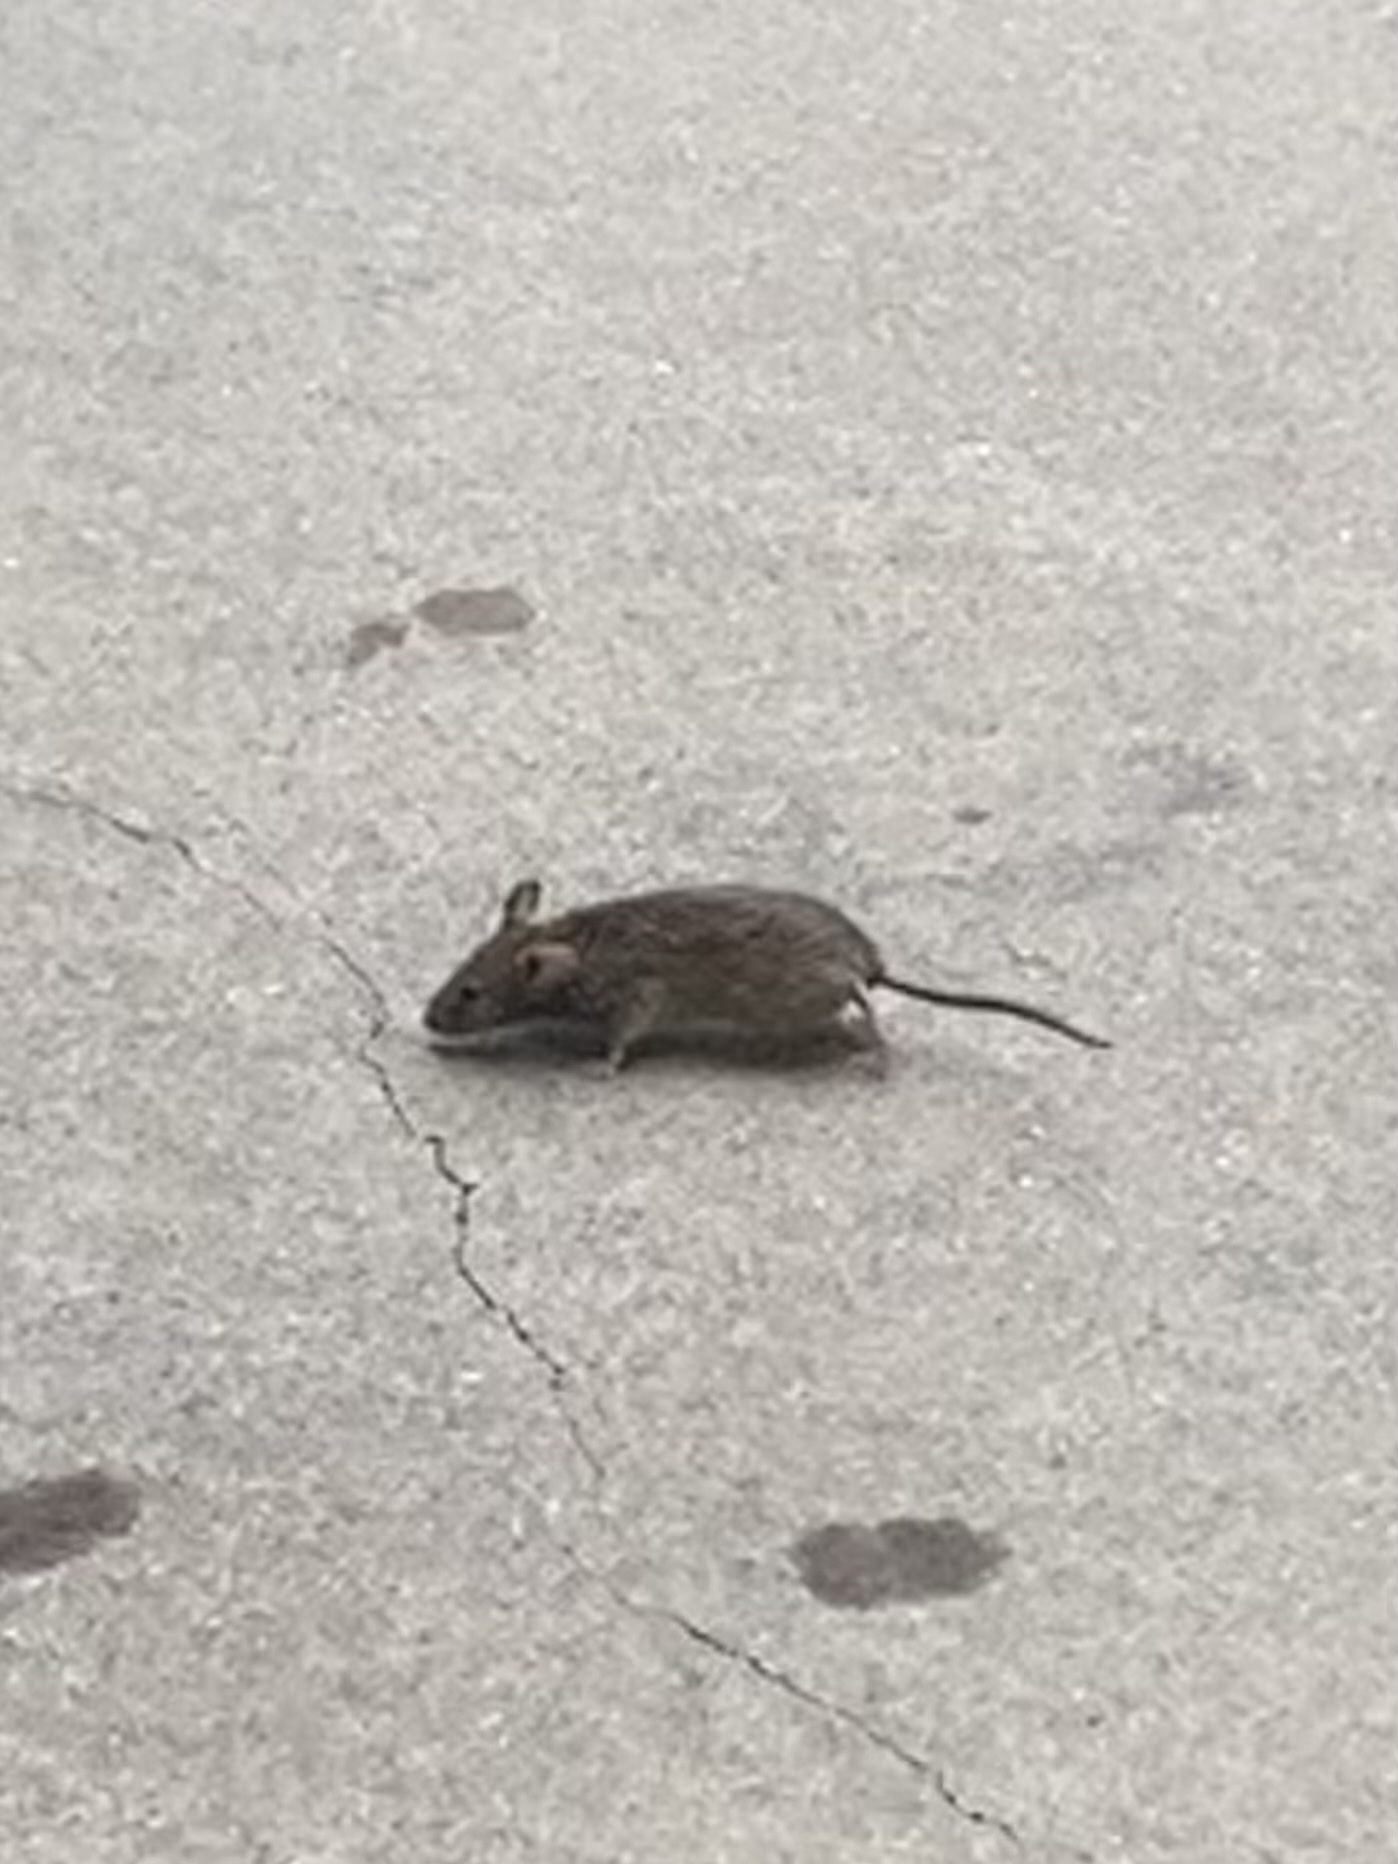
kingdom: Animalia
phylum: Chordata
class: Mammalia
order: Rodentia
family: Muridae
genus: Mus
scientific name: Mus musculus
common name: House mouse
